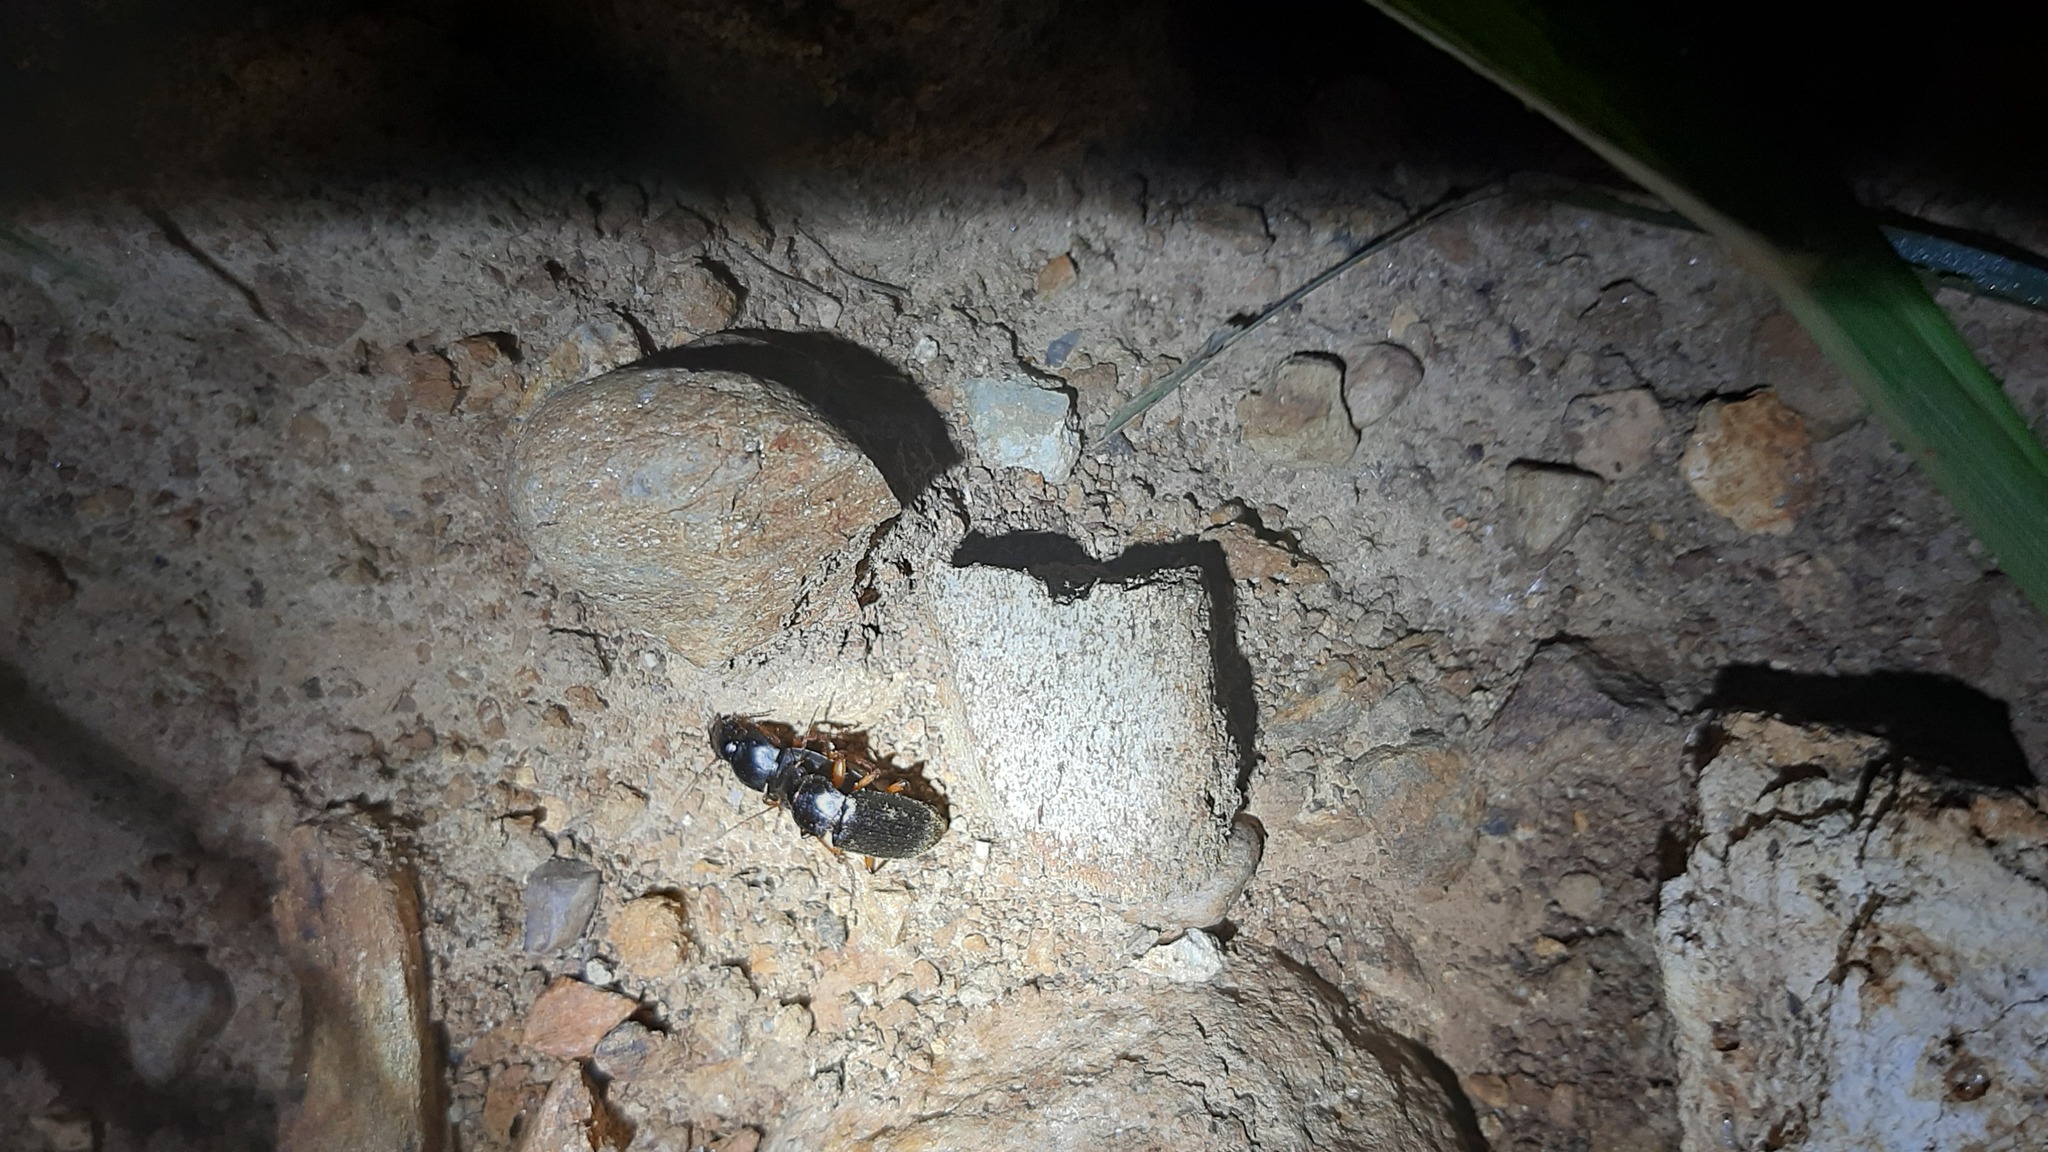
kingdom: Animalia
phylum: Arthropoda
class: Insecta
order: Coleoptera
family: Carabidae
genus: Harpalus
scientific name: Harpalus rufipes
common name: Strawberry harp ground beetle
